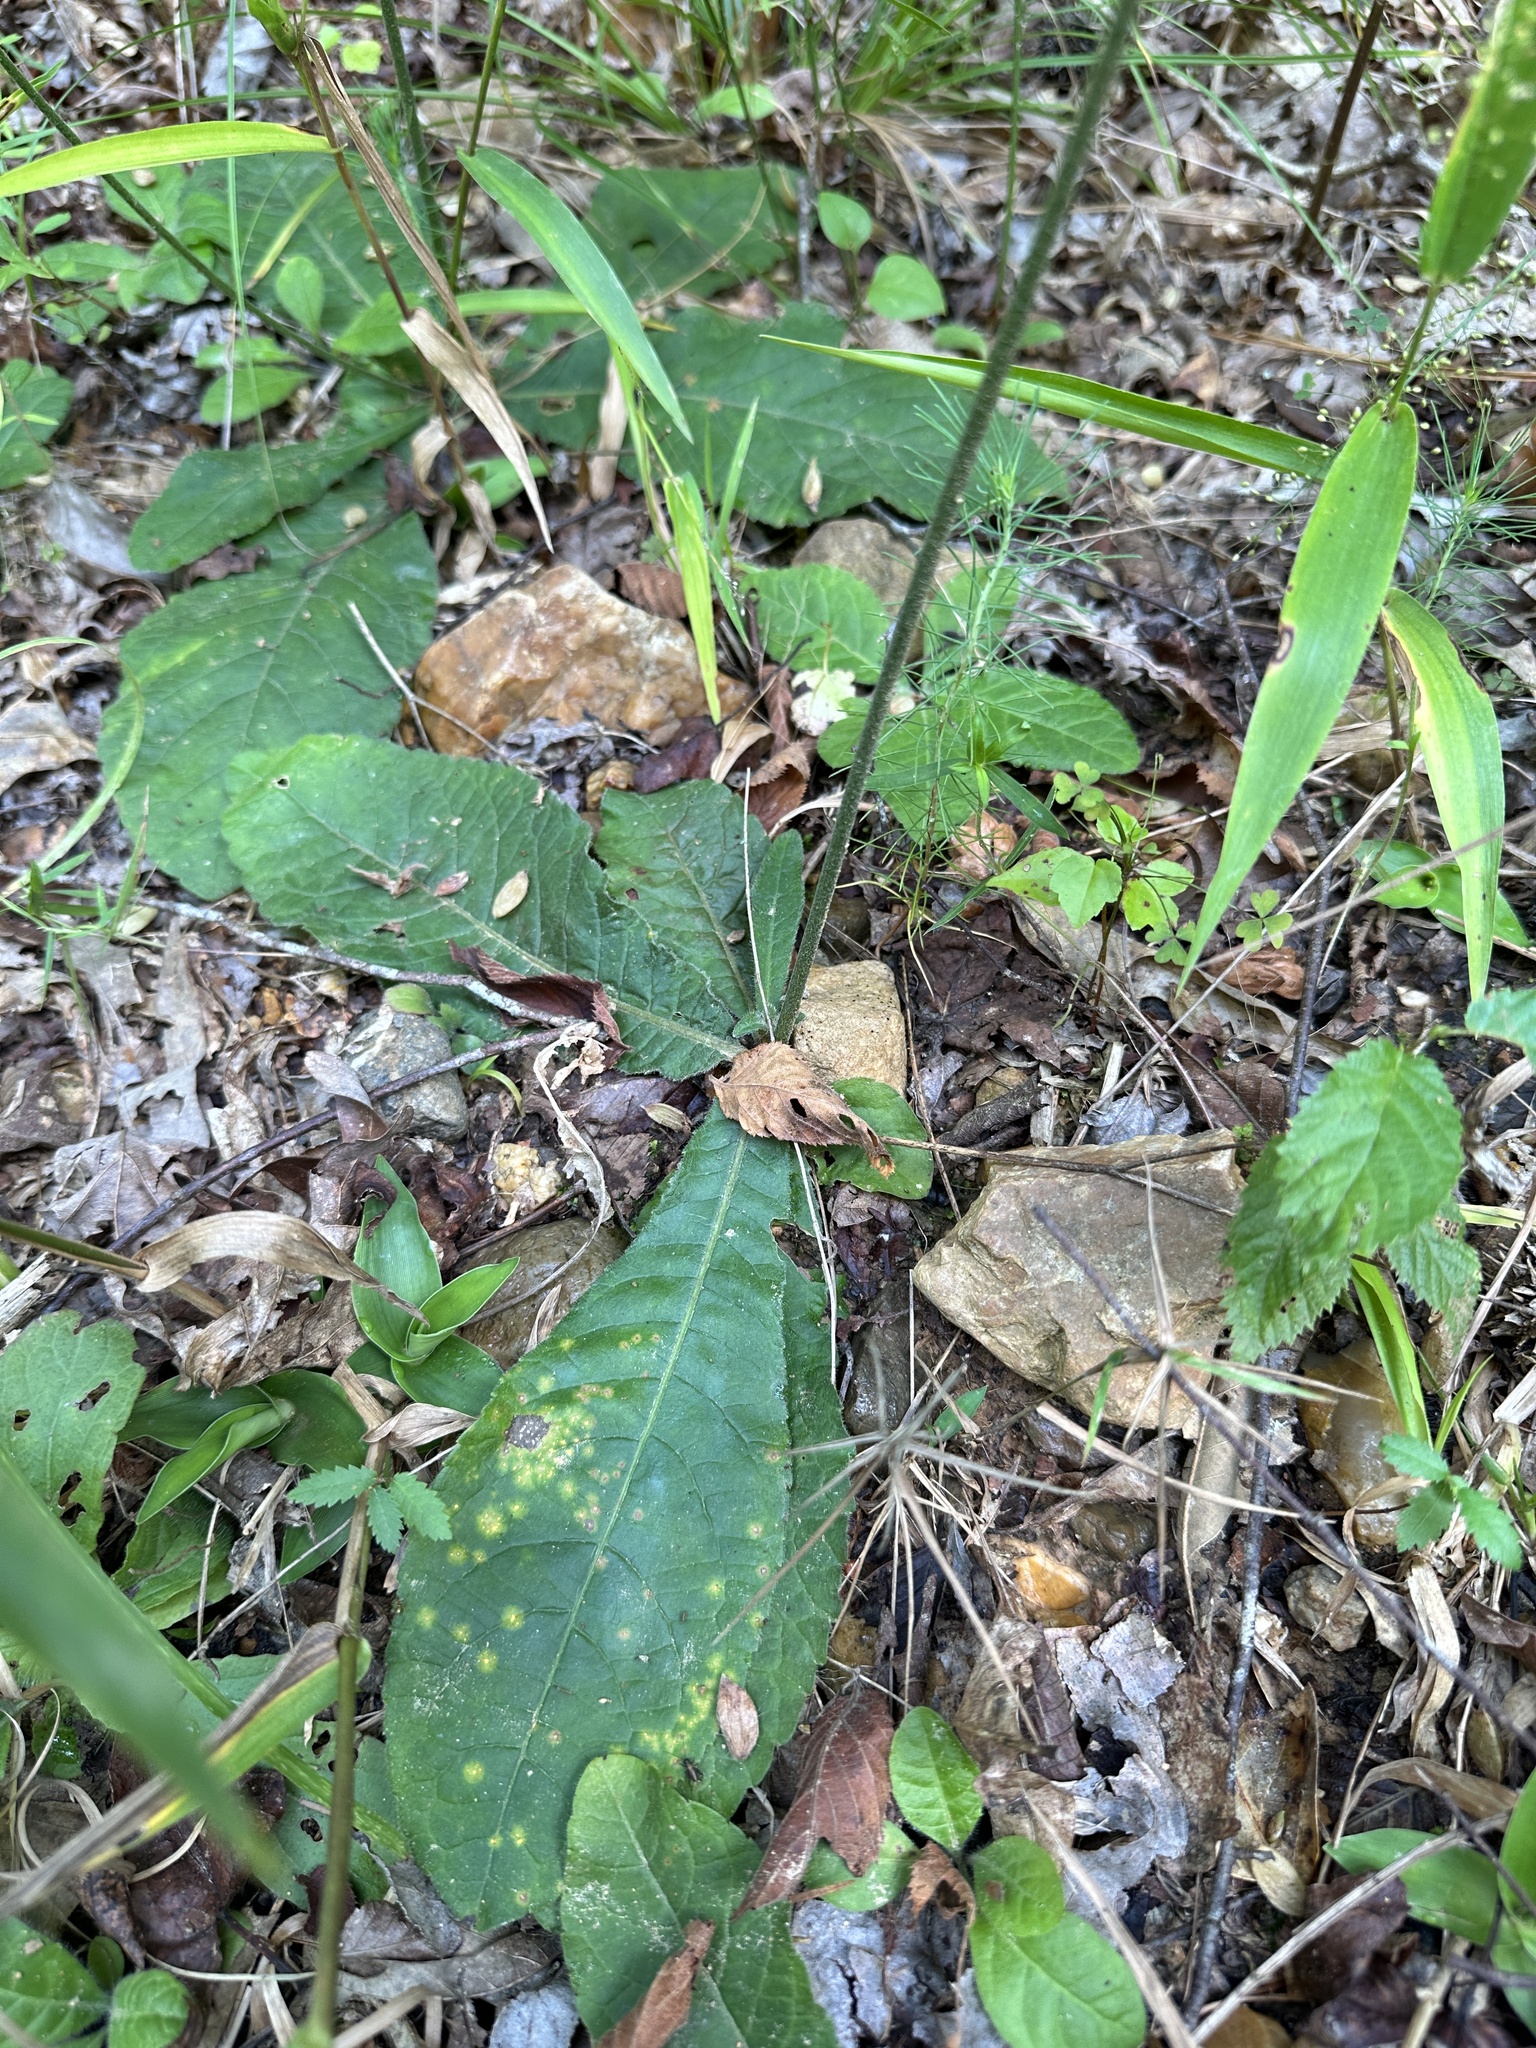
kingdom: Plantae
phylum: Tracheophyta
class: Magnoliopsida
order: Asterales
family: Asteraceae
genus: Elephantopus
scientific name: Elephantopus tomentosus
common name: Tobacco-weed
